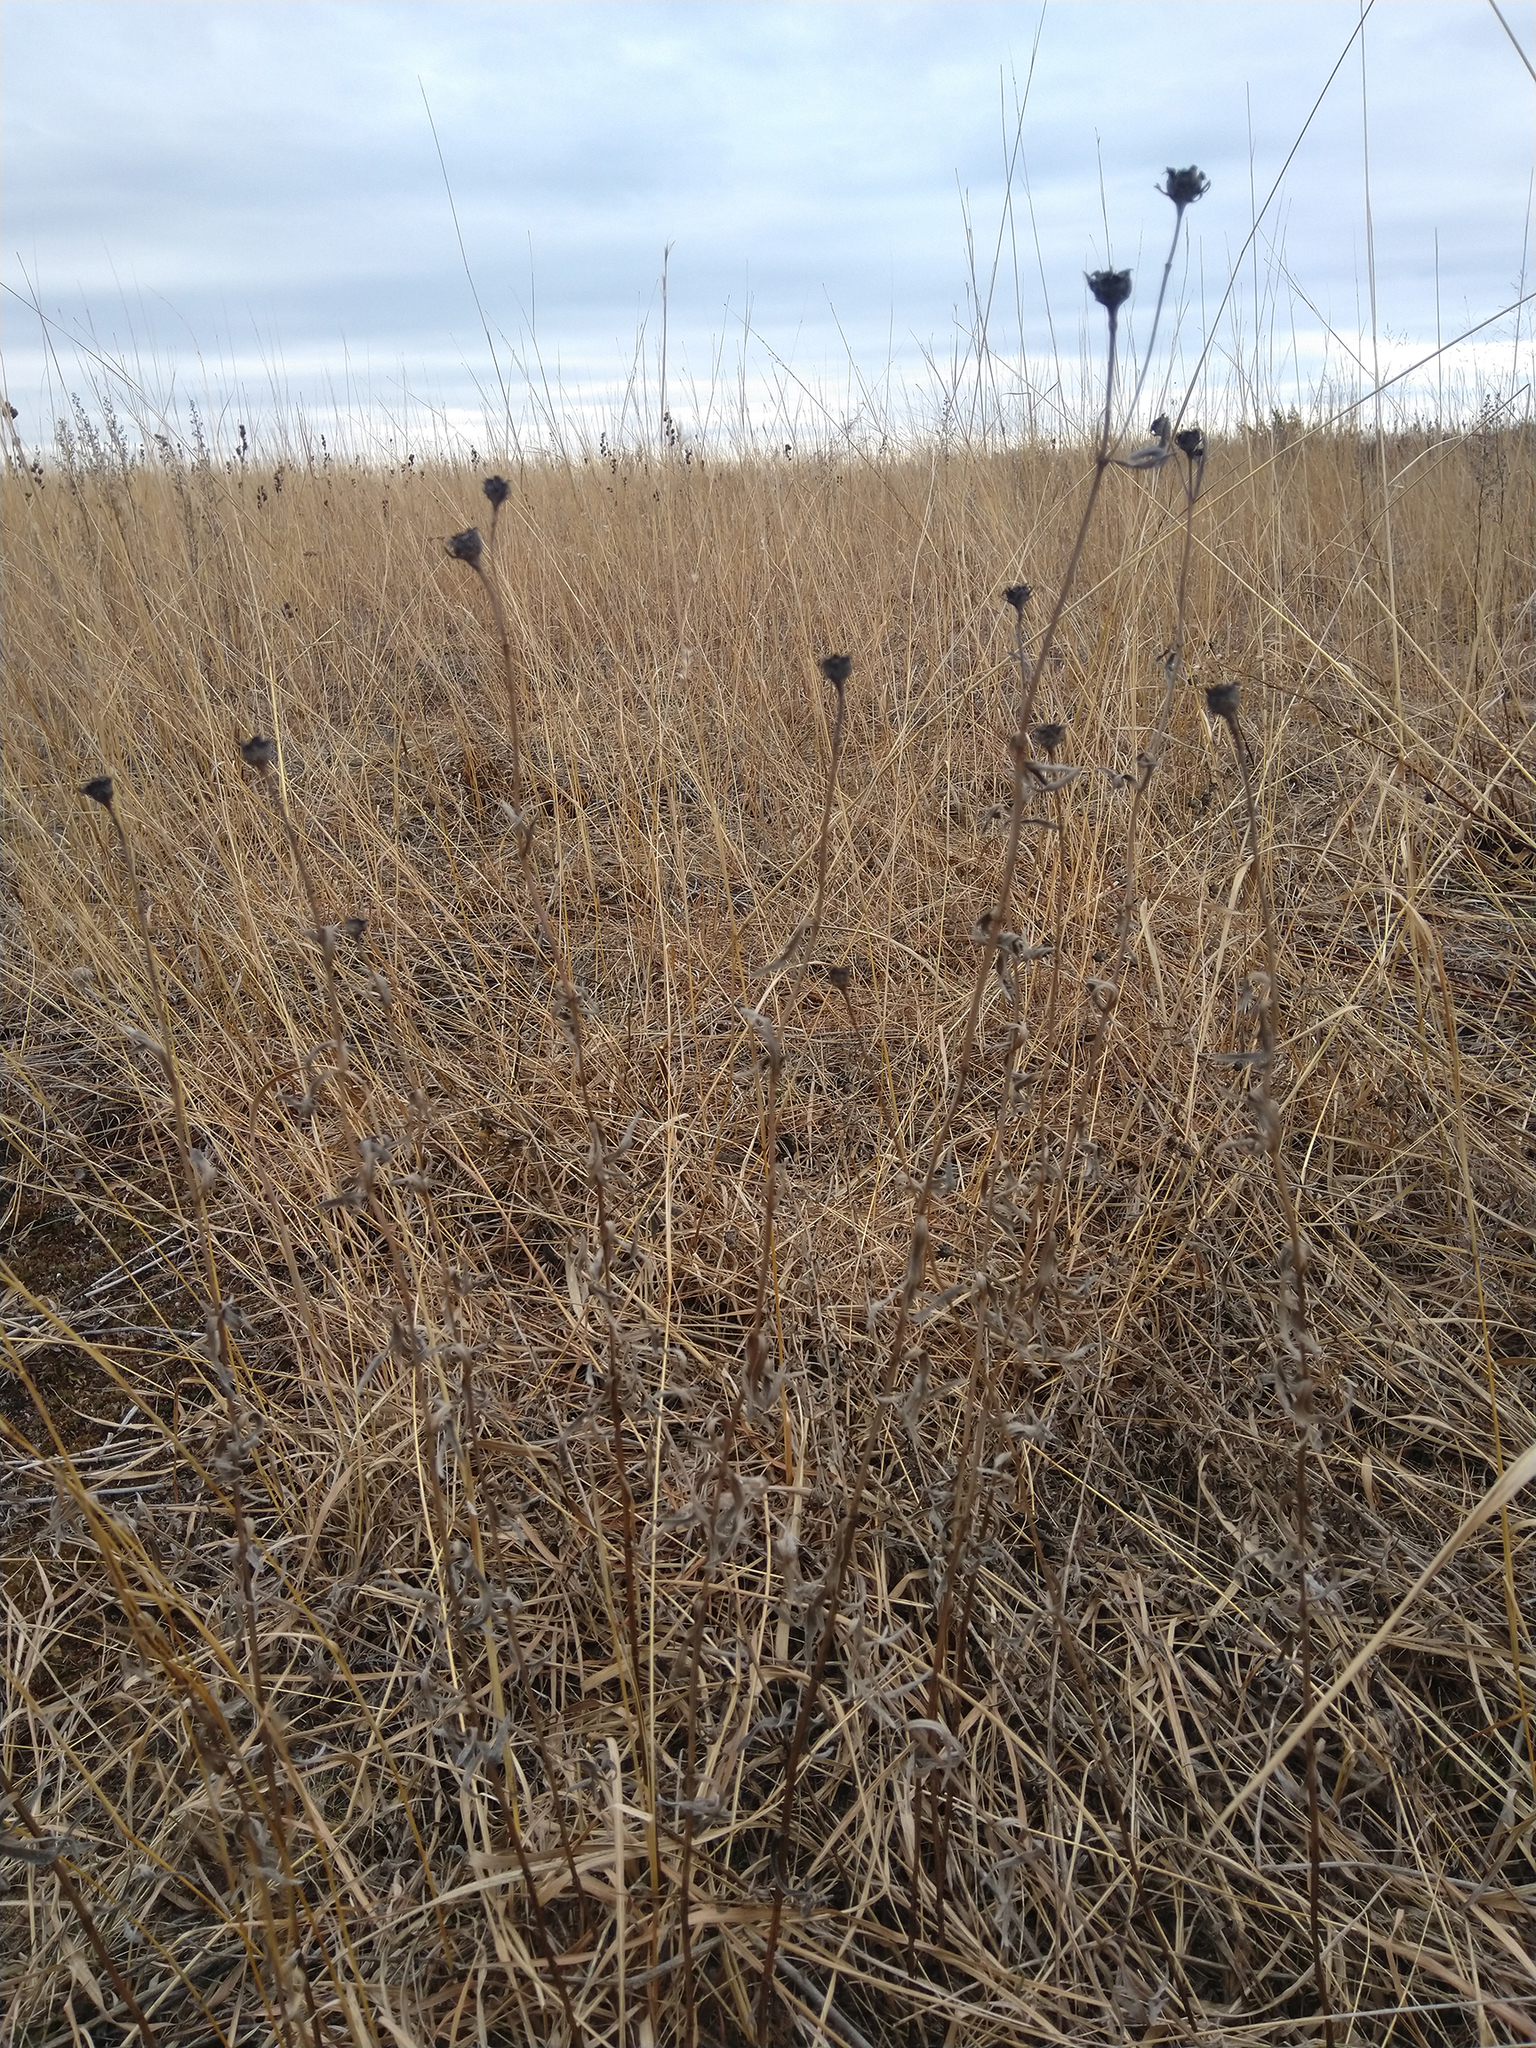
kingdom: Plantae
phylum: Tracheophyta
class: Magnoliopsida
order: Asterales
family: Asteraceae
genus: Coreopsis
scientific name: Coreopsis palmata
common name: Prairie coreopsis
